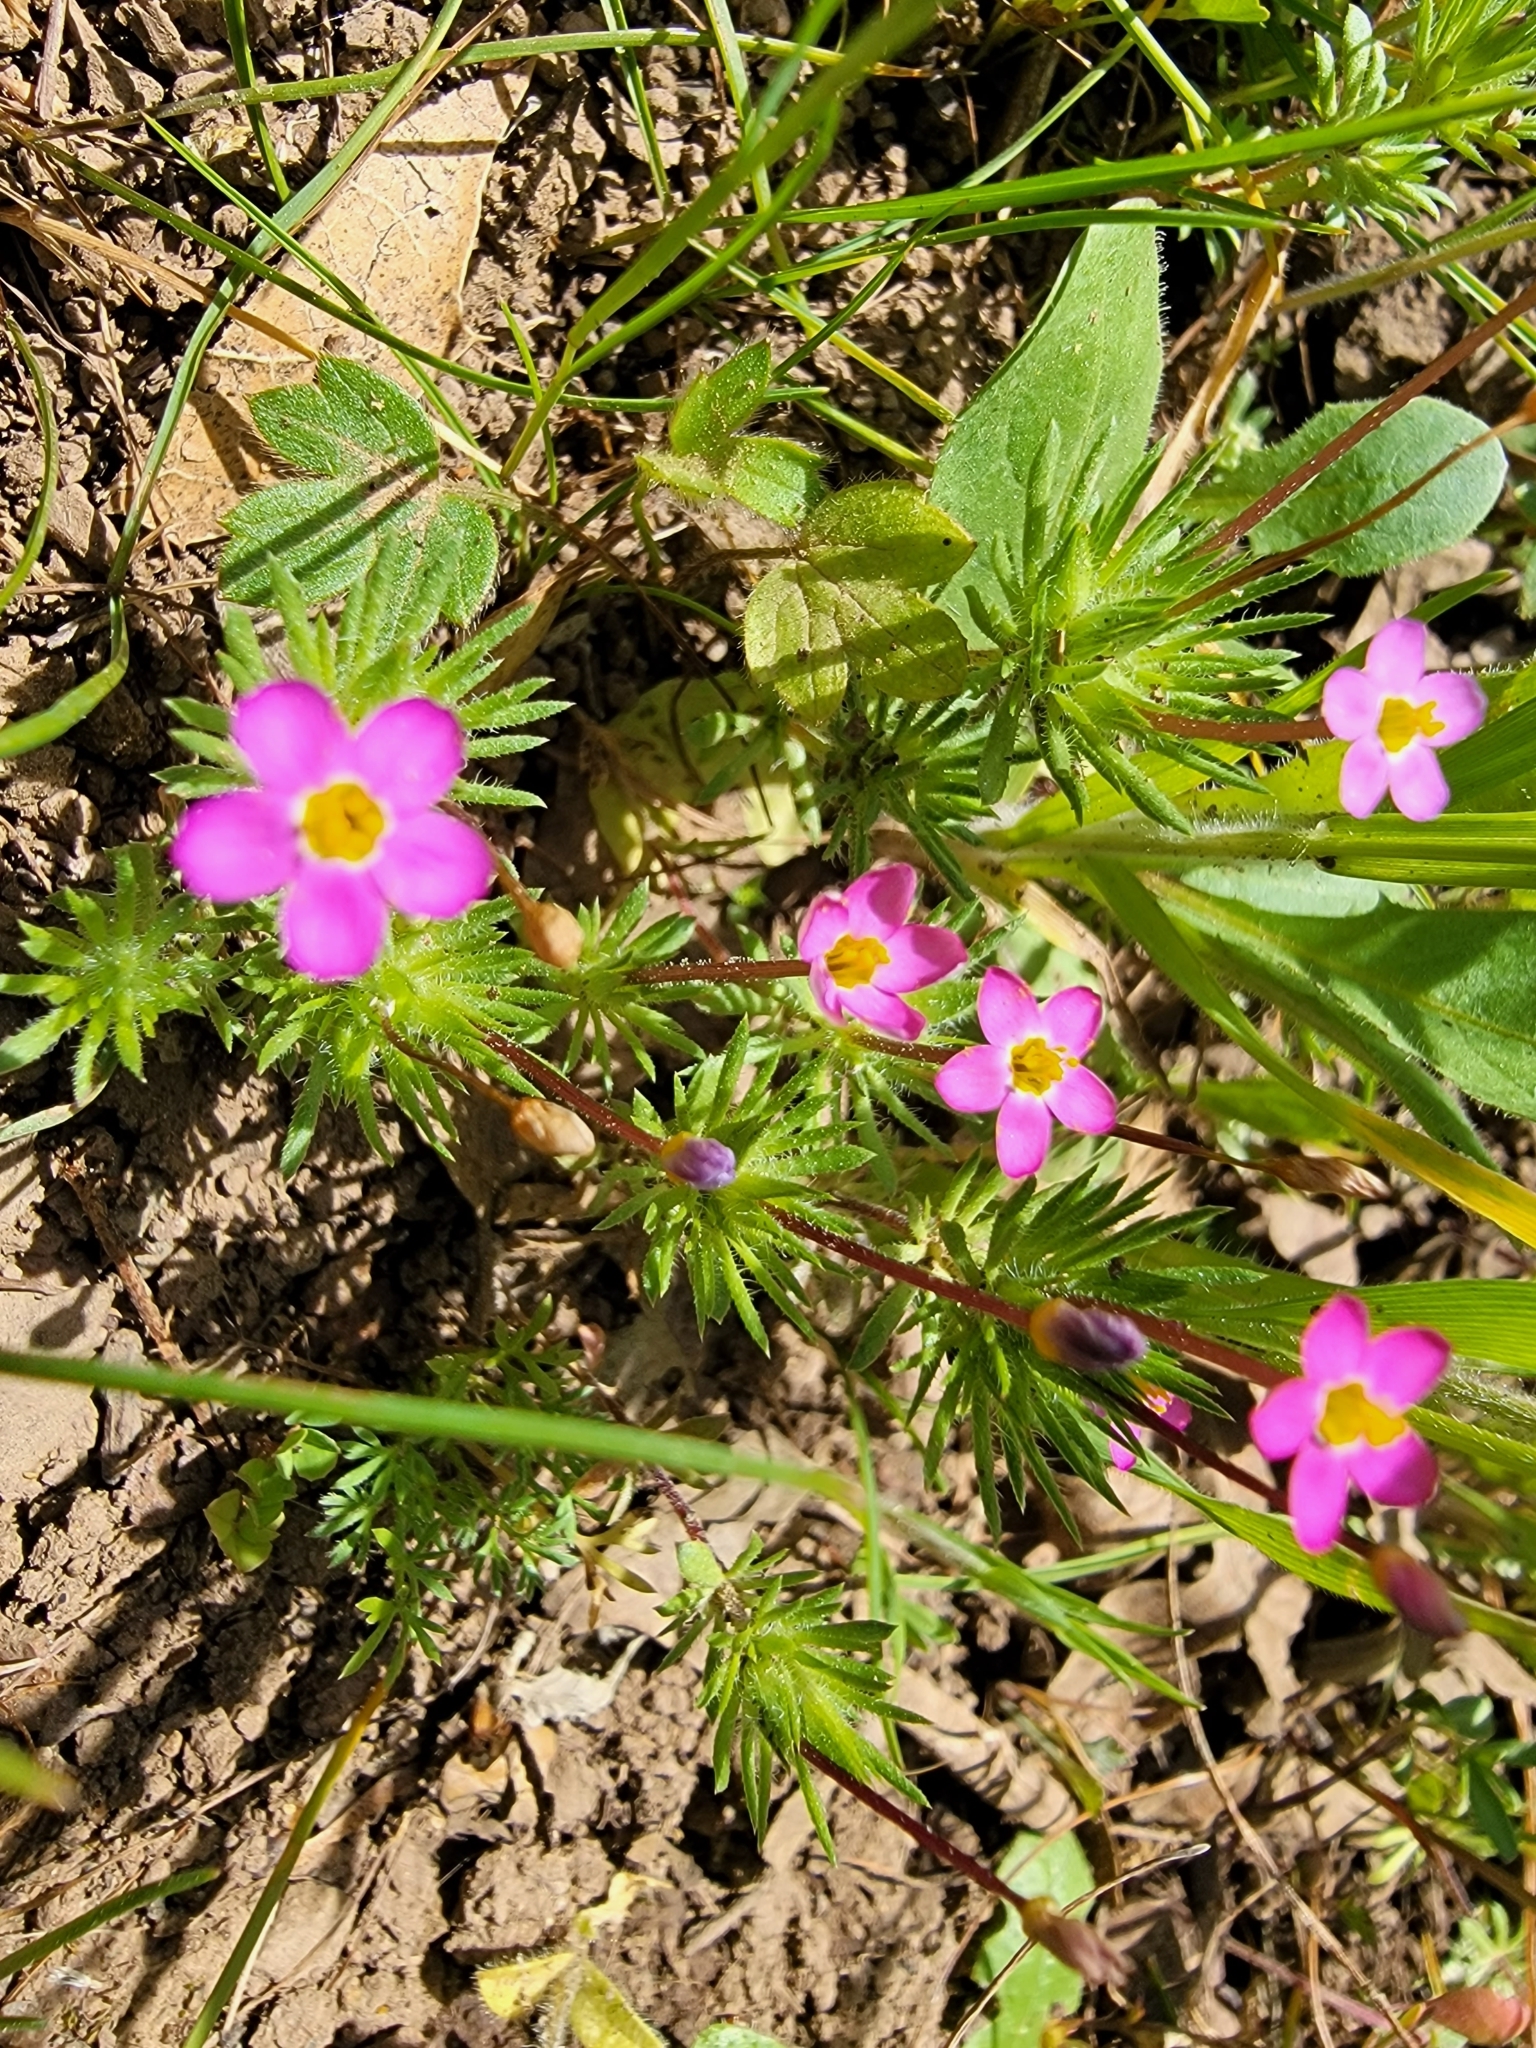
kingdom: Plantae
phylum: Tracheophyta
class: Magnoliopsida
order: Ericales
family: Polemoniaceae
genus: Leptosiphon
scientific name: Leptosiphon bicolor
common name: True babystars
